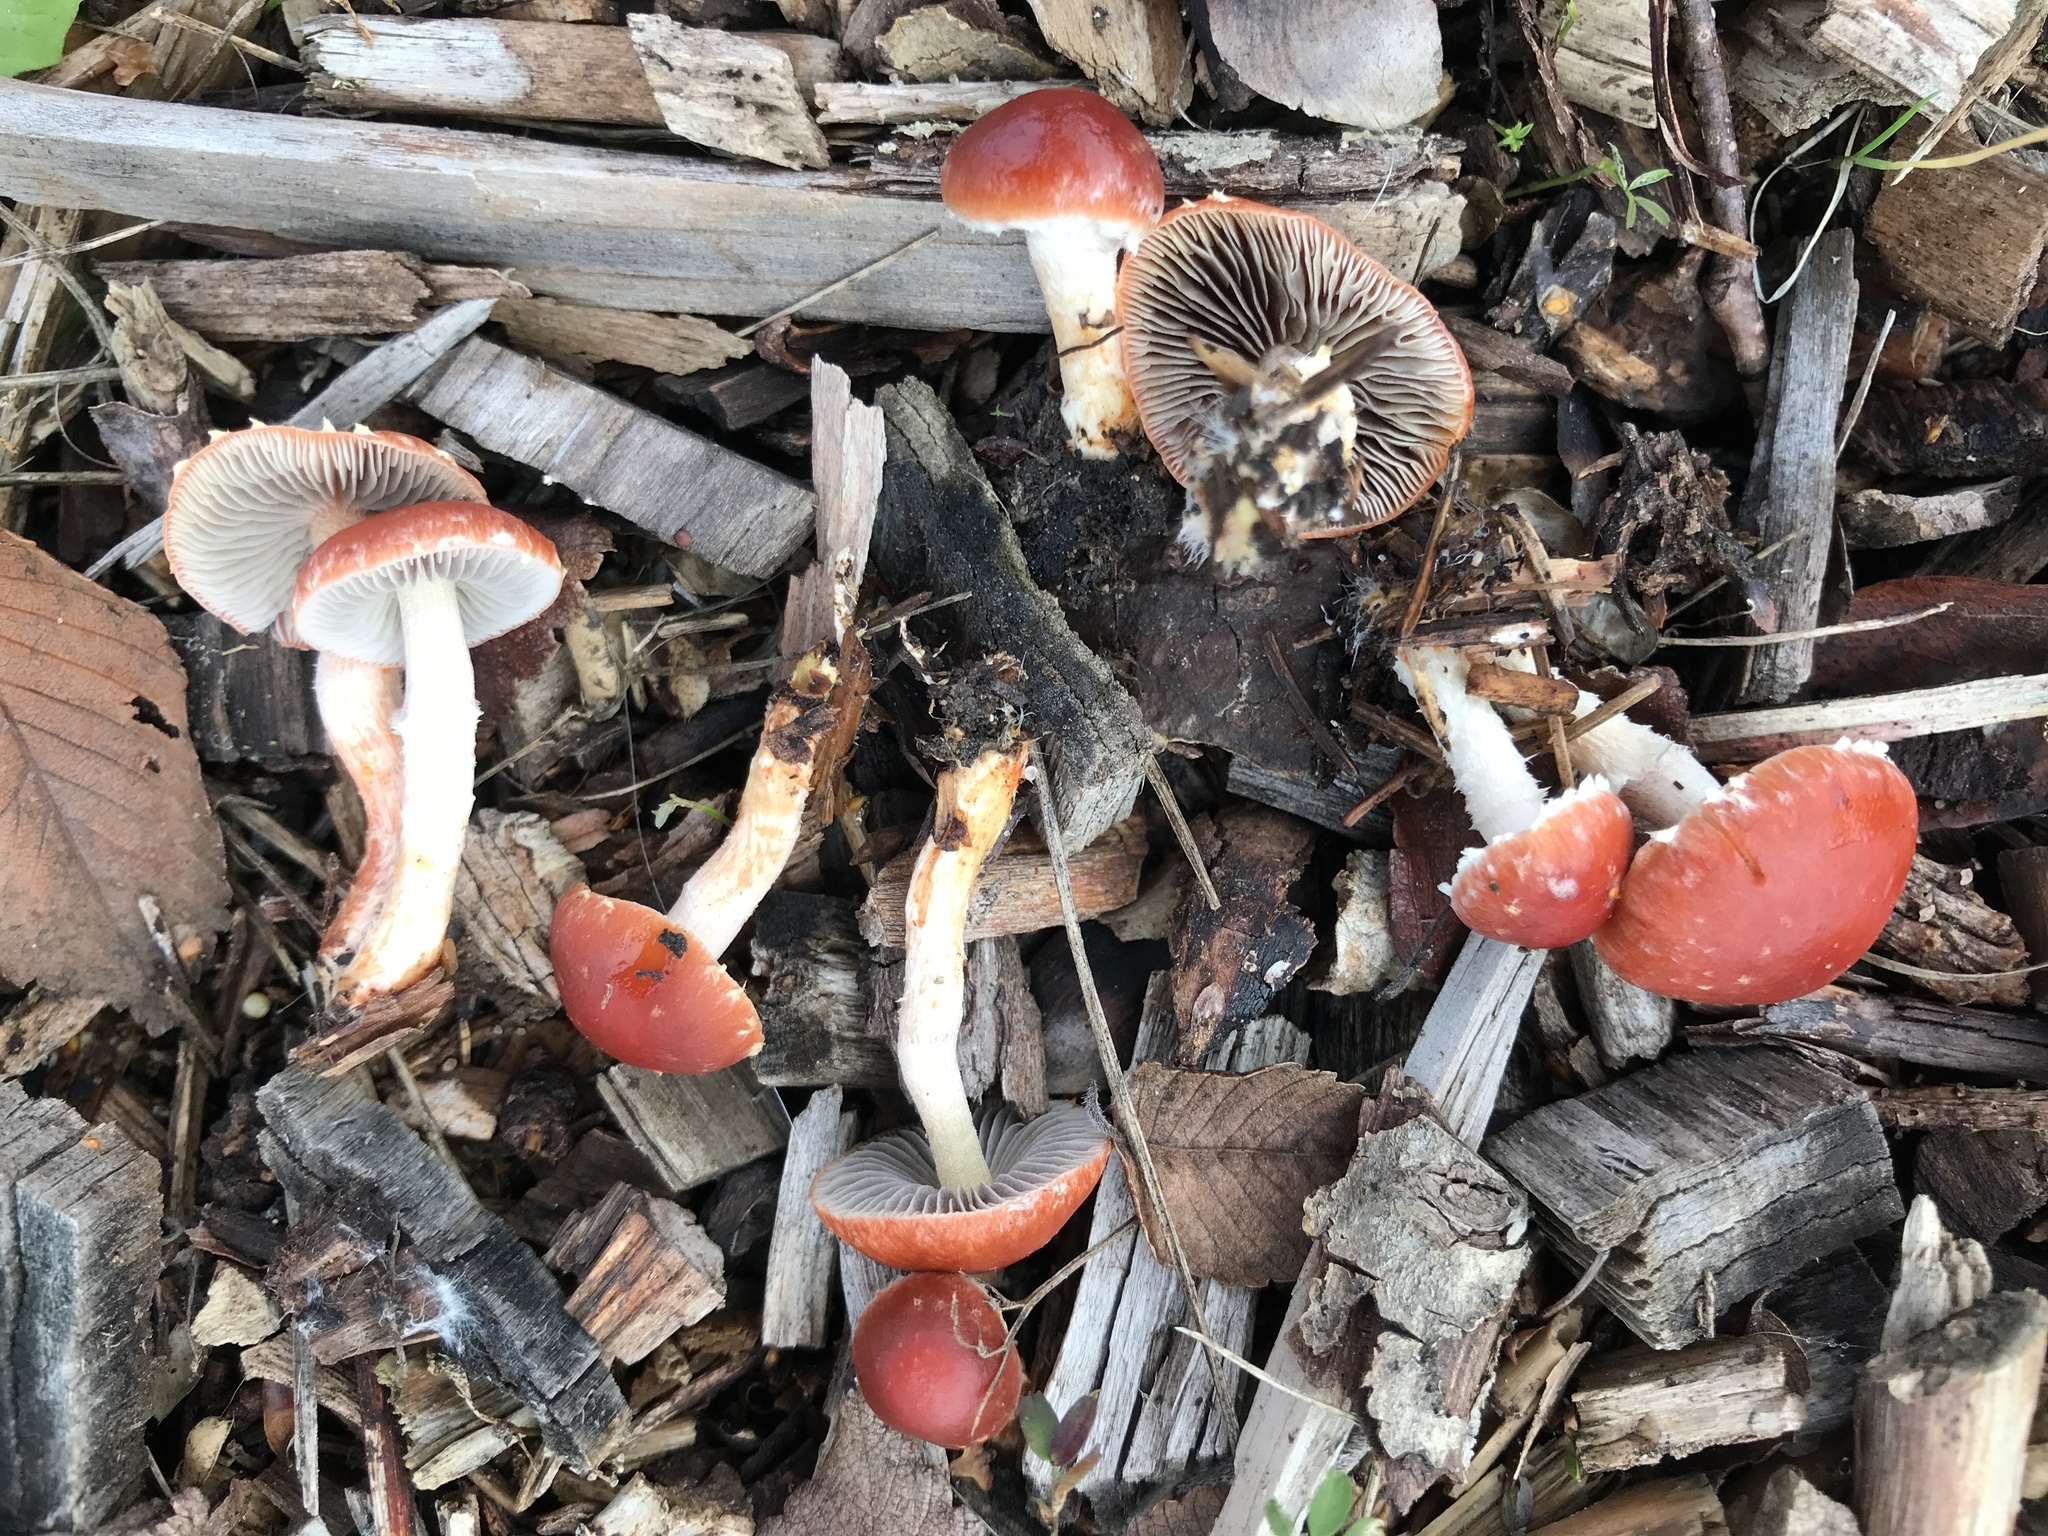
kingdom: Fungi
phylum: Basidiomycota
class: Agaricomycetes
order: Agaricales
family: Strophariaceae
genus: Leratiomyces
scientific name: Leratiomyces ceres
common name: Redlead roundhead
